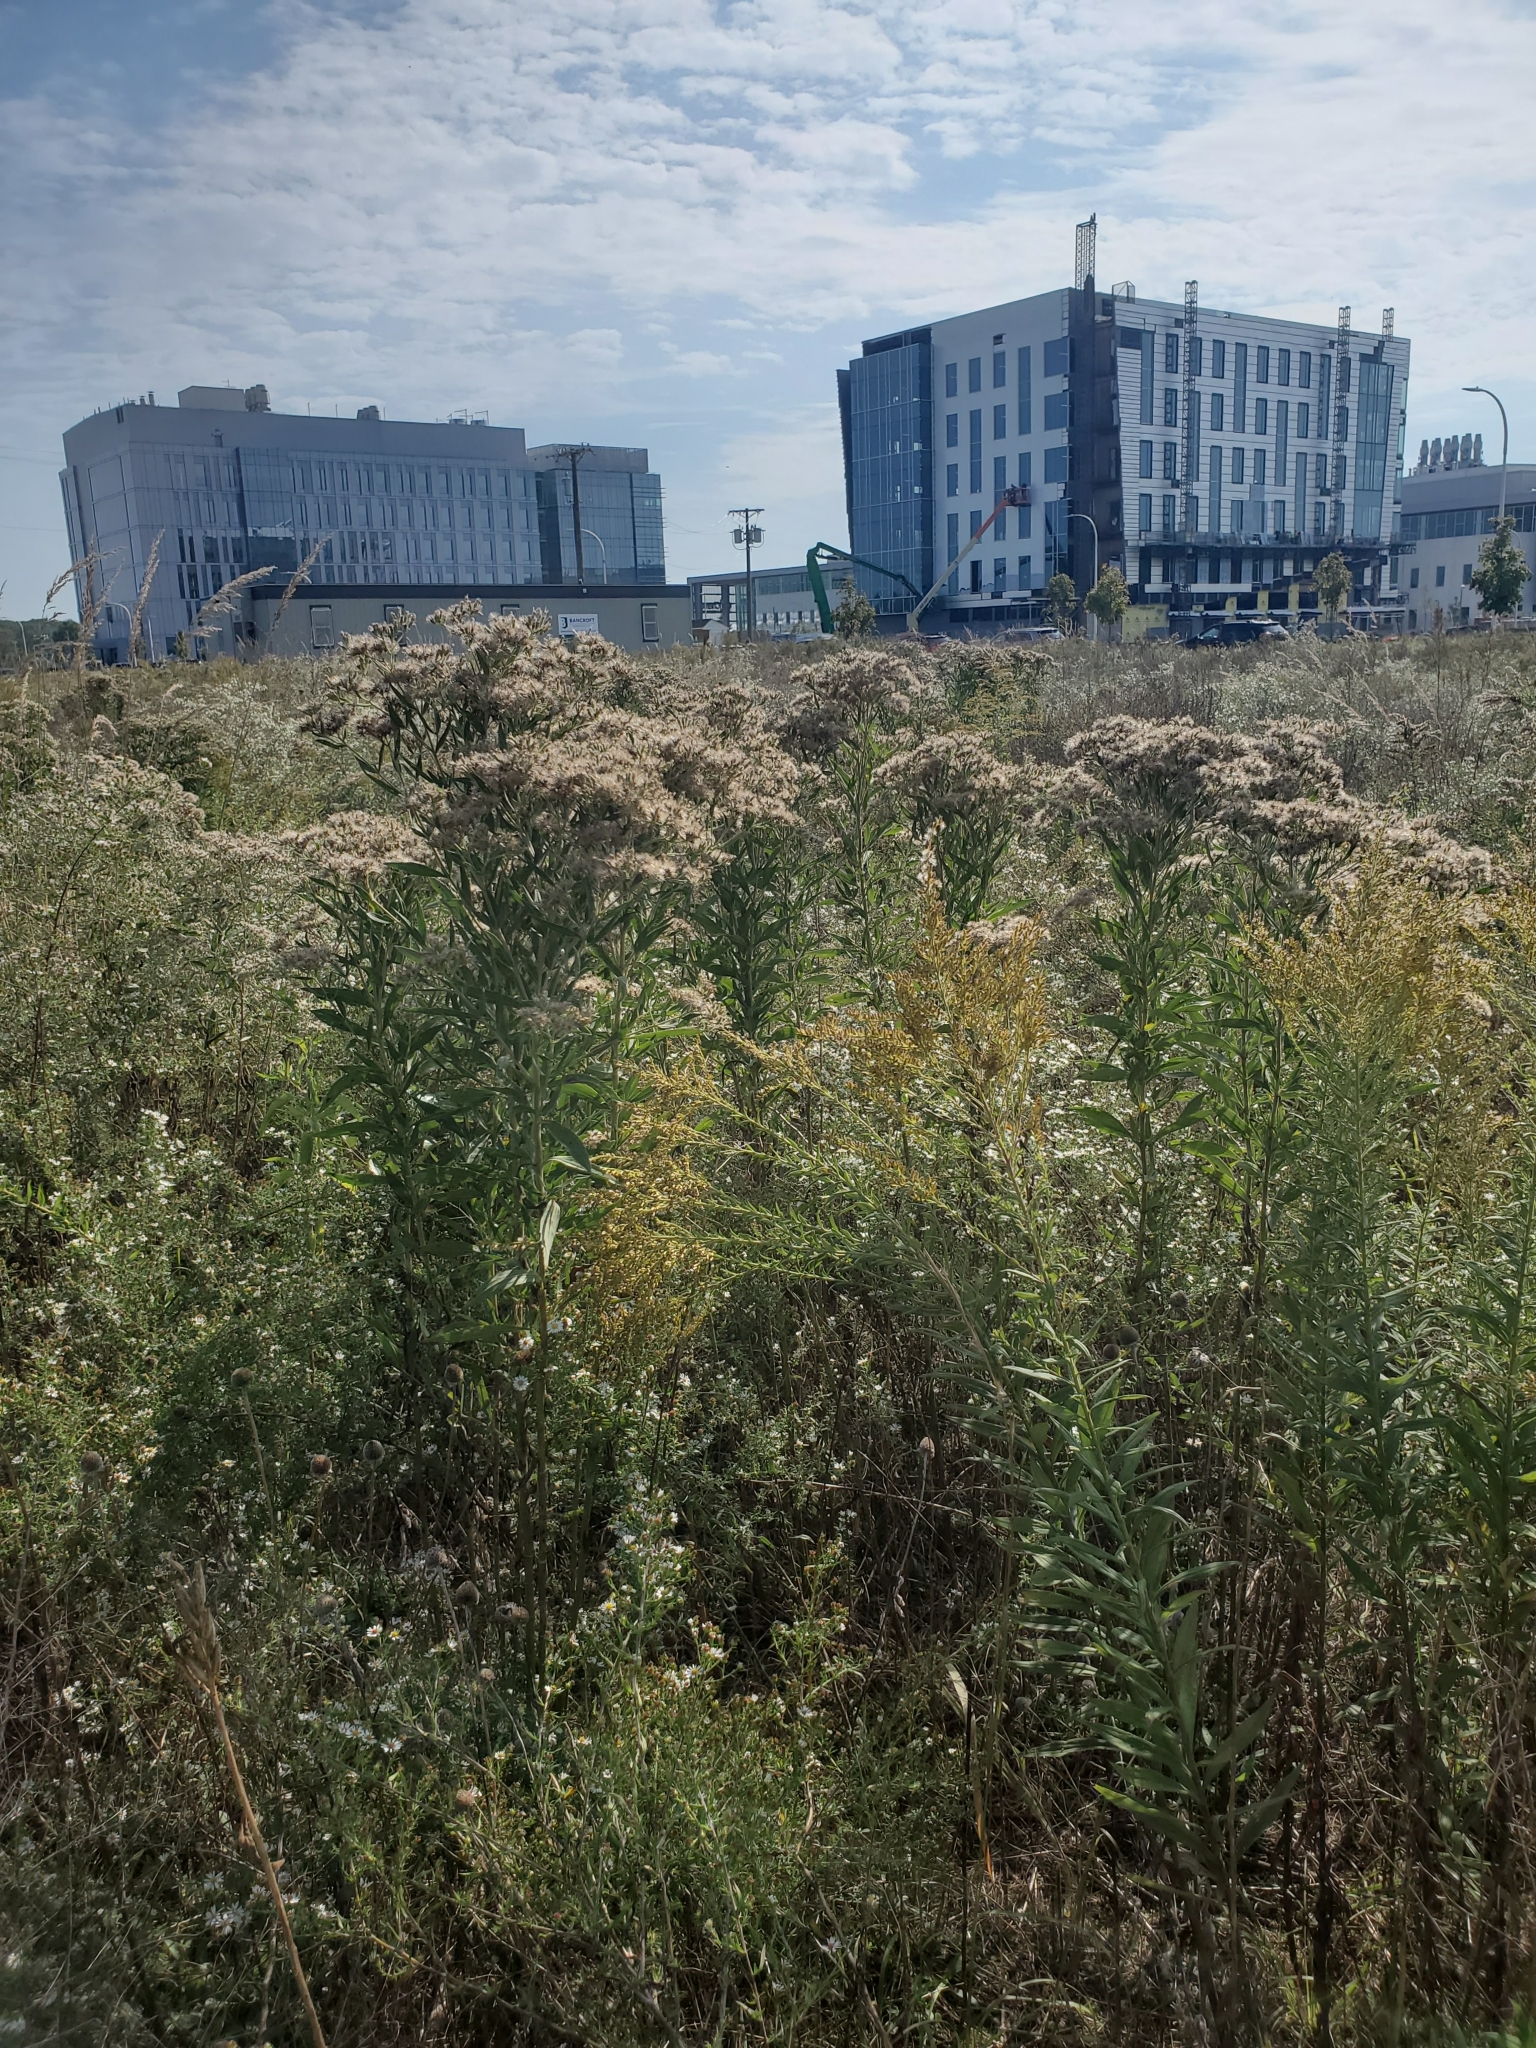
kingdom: Plantae
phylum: Tracheophyta
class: Magnoliopsida
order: Asterales
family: Asteraceae
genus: Eupatorium
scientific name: Eupatorium altissimum
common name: Tall thoroughwort
